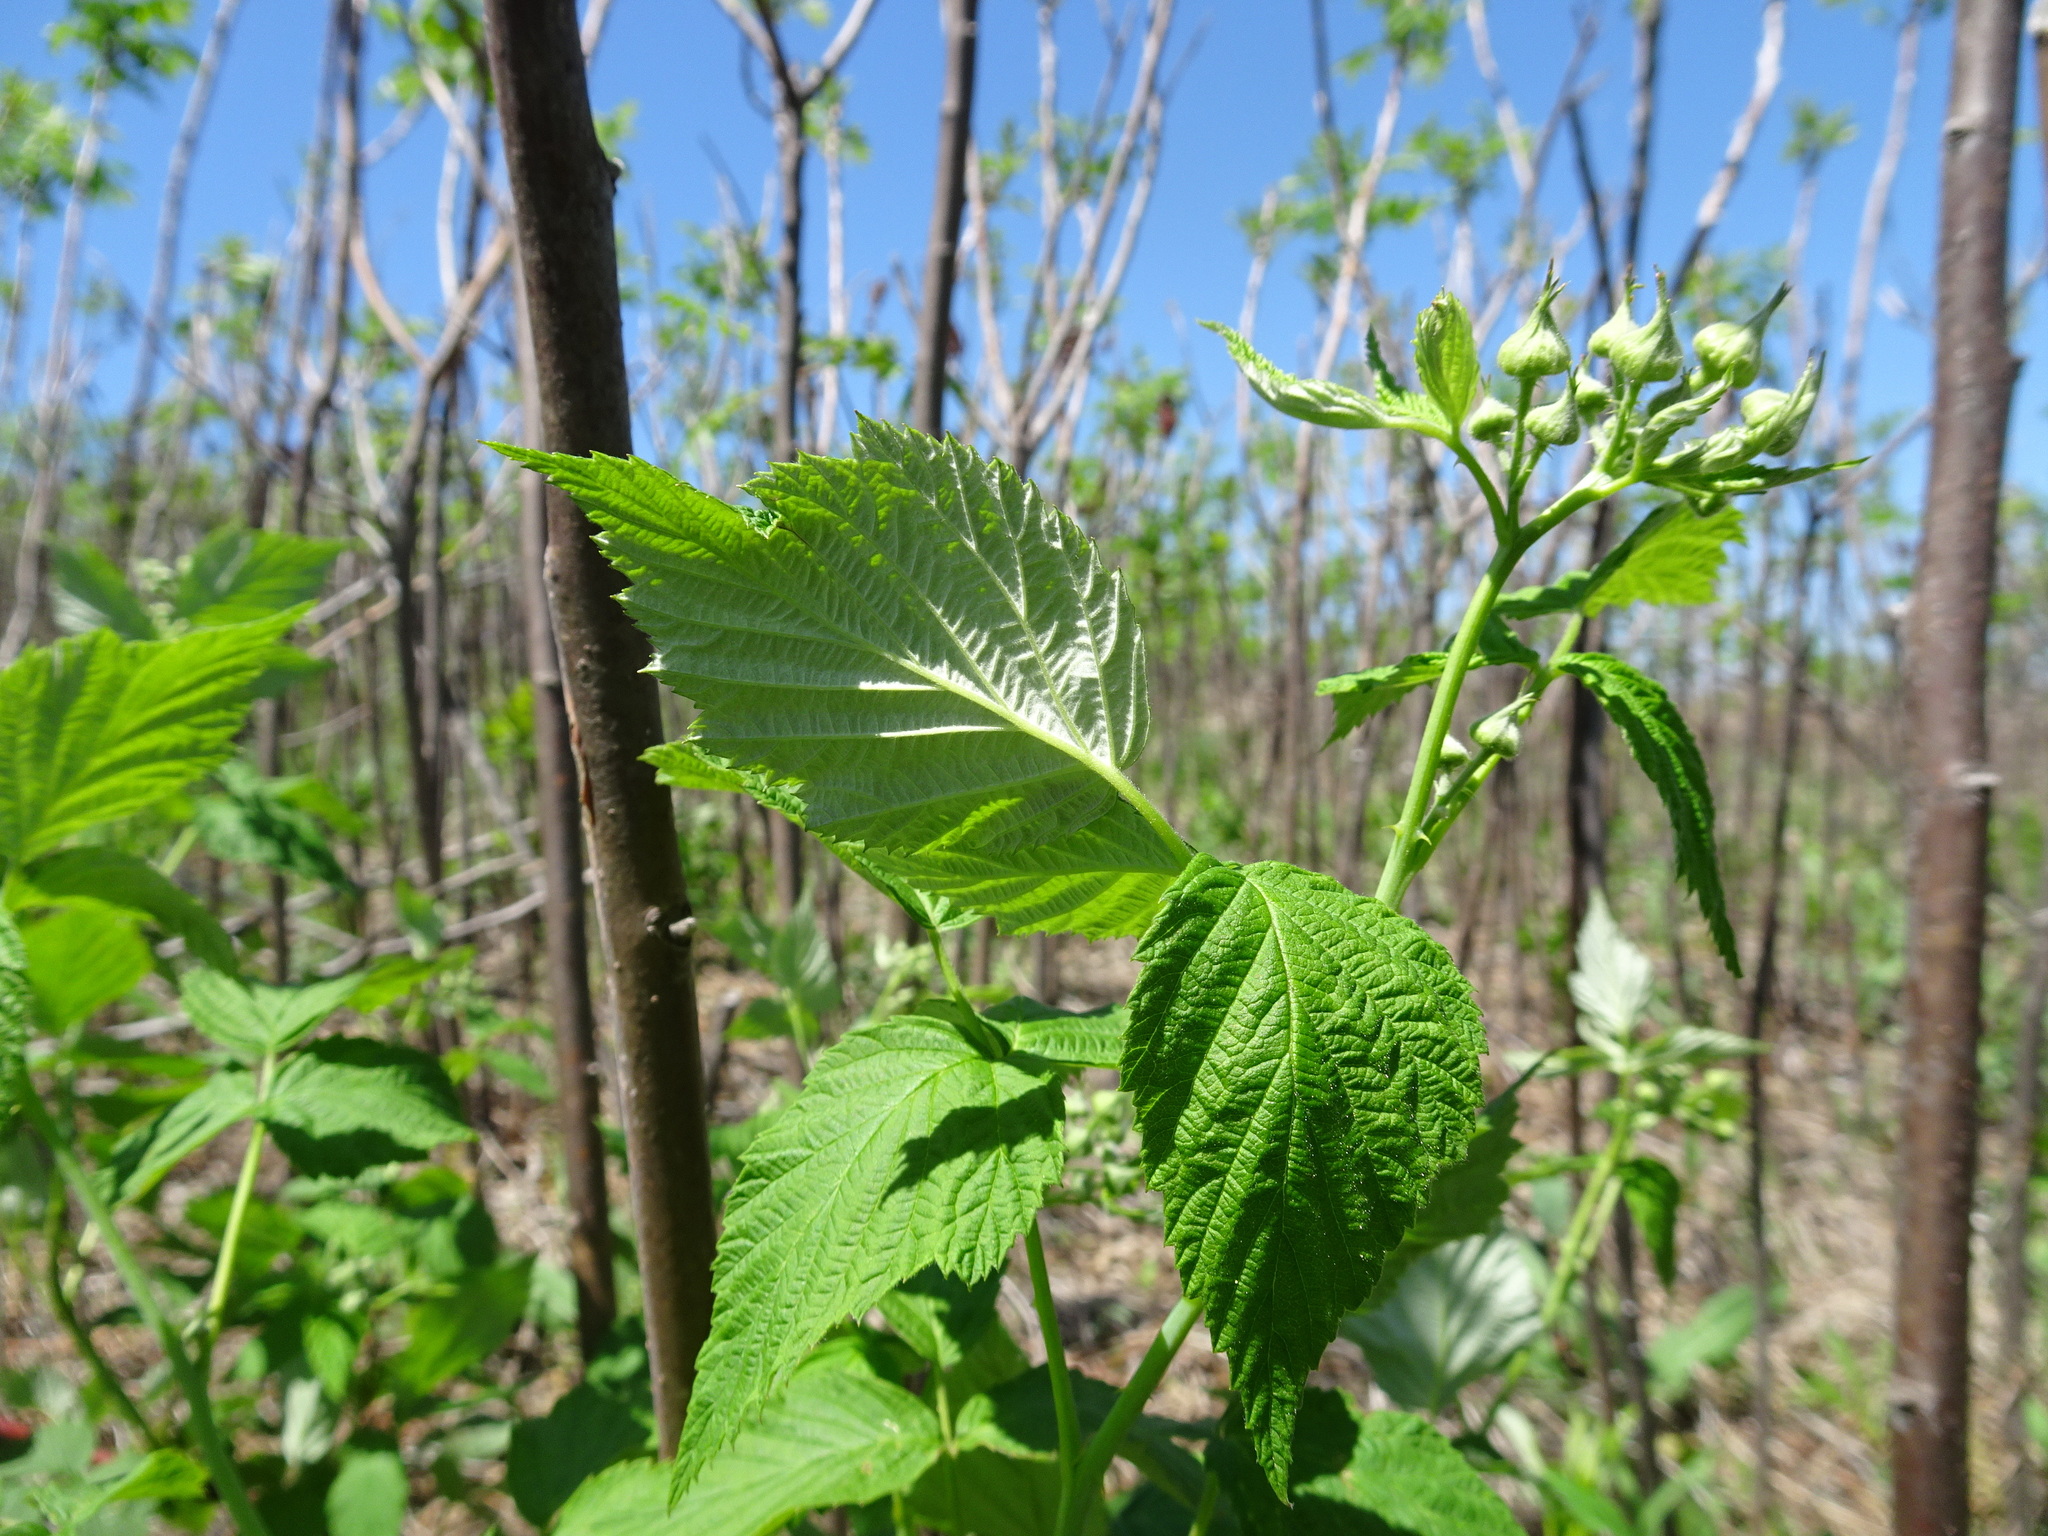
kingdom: Plantae
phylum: Tracheophyta
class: Magnoliopsida
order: Rosales
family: Rosaceae
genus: Rubus
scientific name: Rubus occidentalis
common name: Black raspberry
